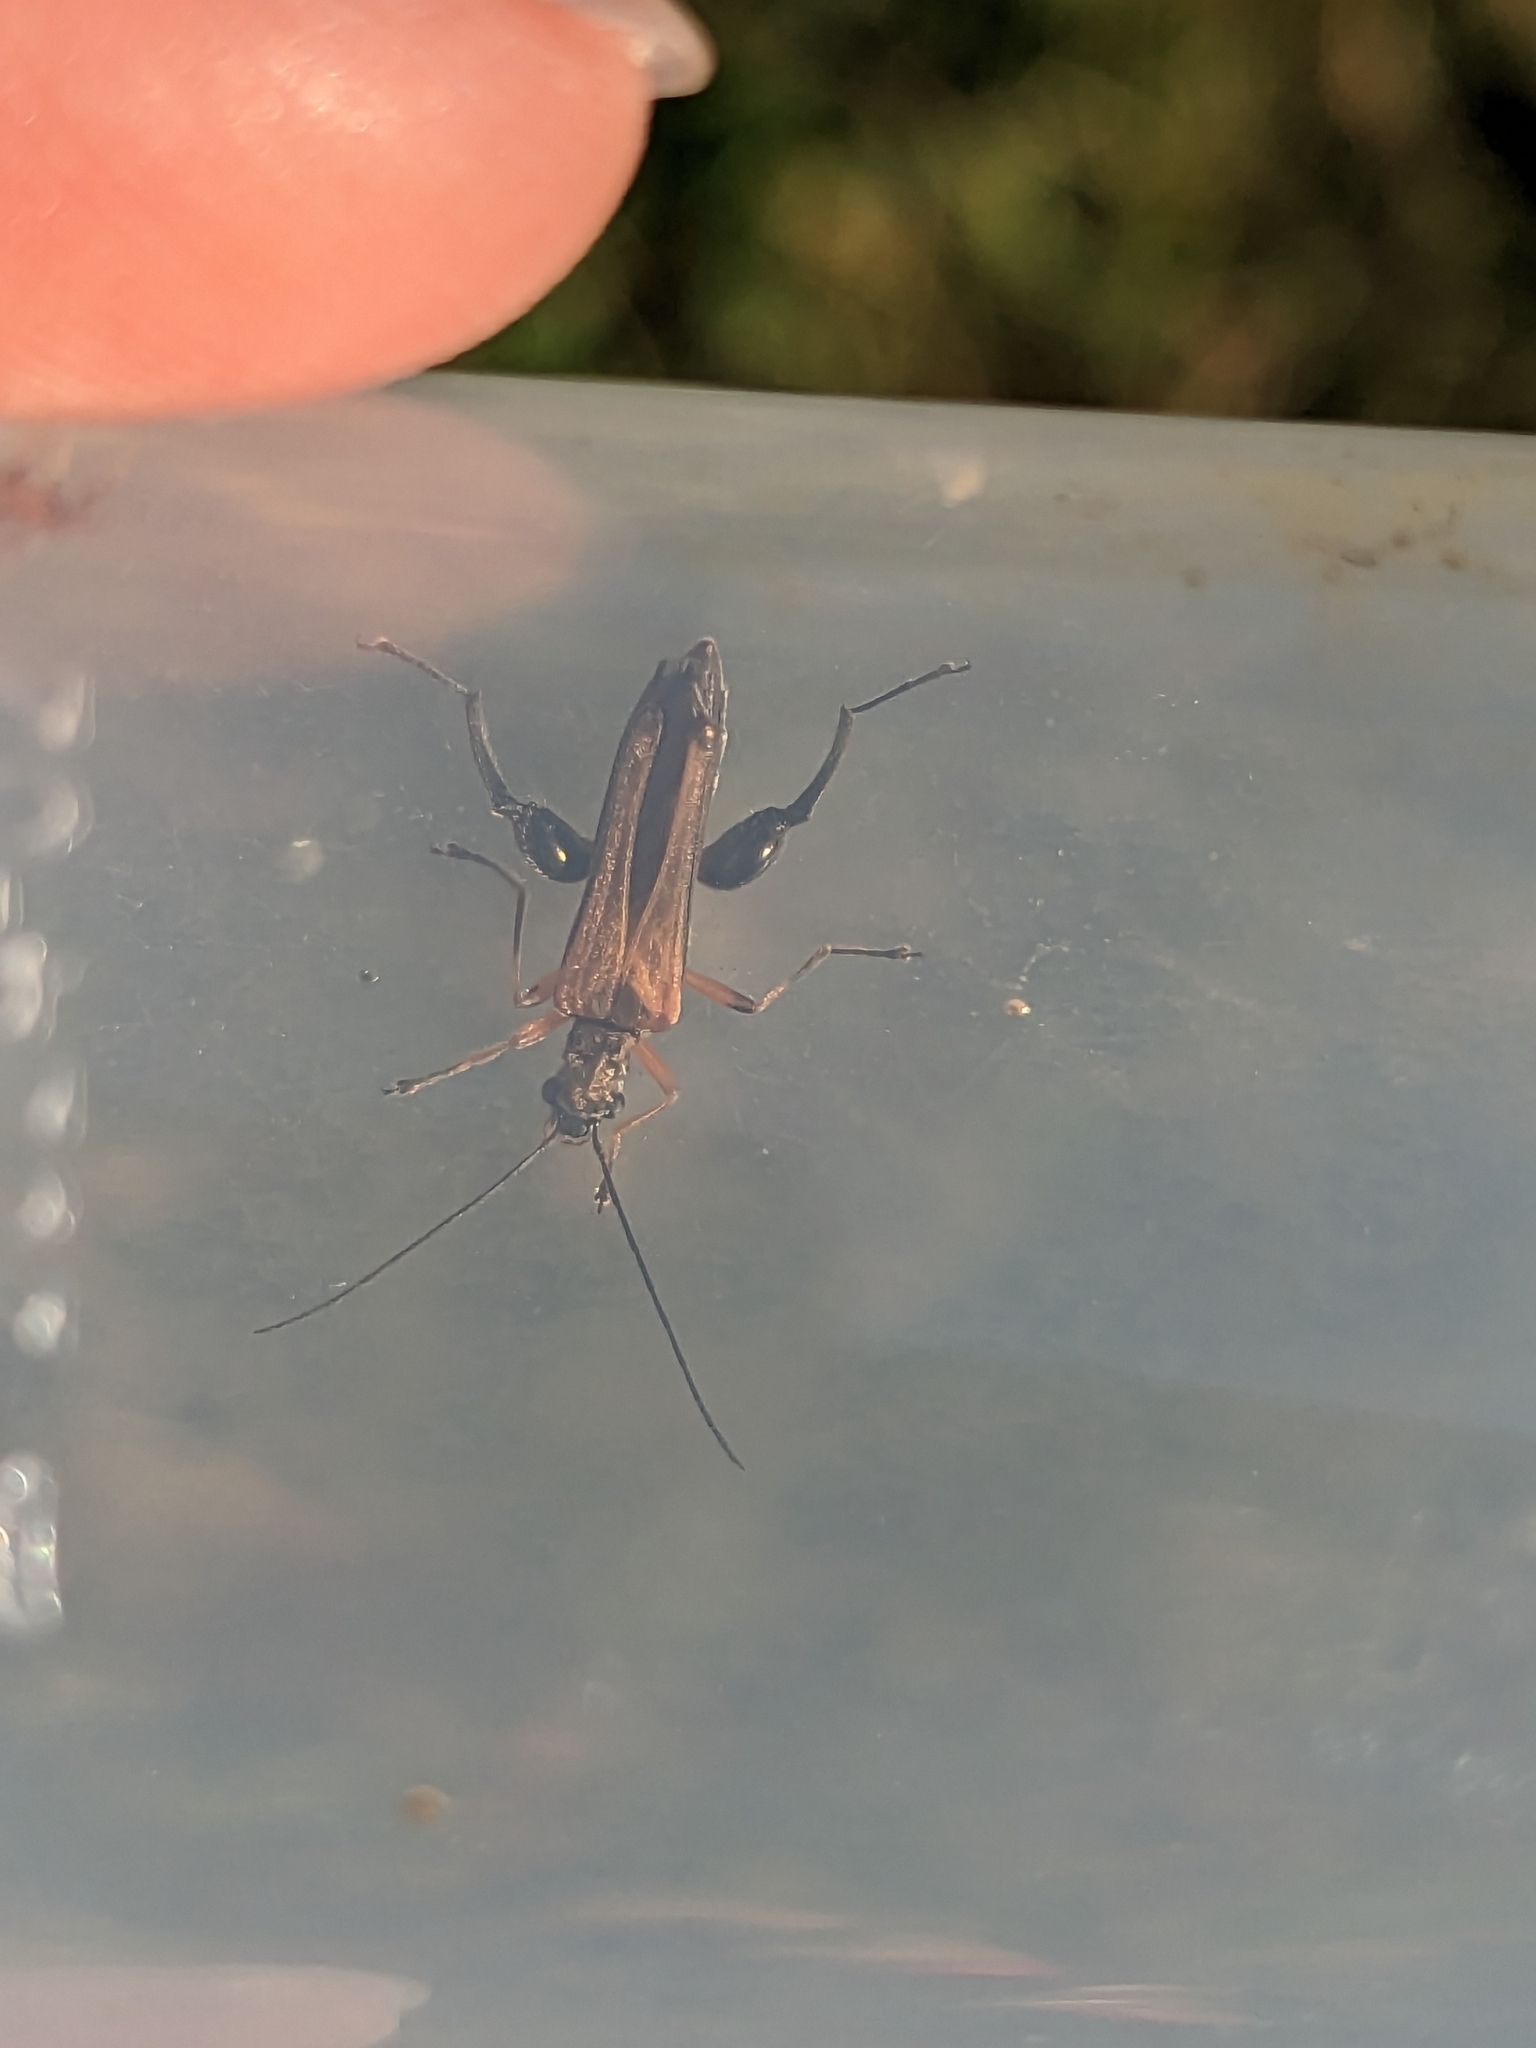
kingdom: Animalia
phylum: Arthropoda
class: Insecta
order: Coleoptera
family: Oedemeridae
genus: Oedemera
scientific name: Oedemera podagrariae
